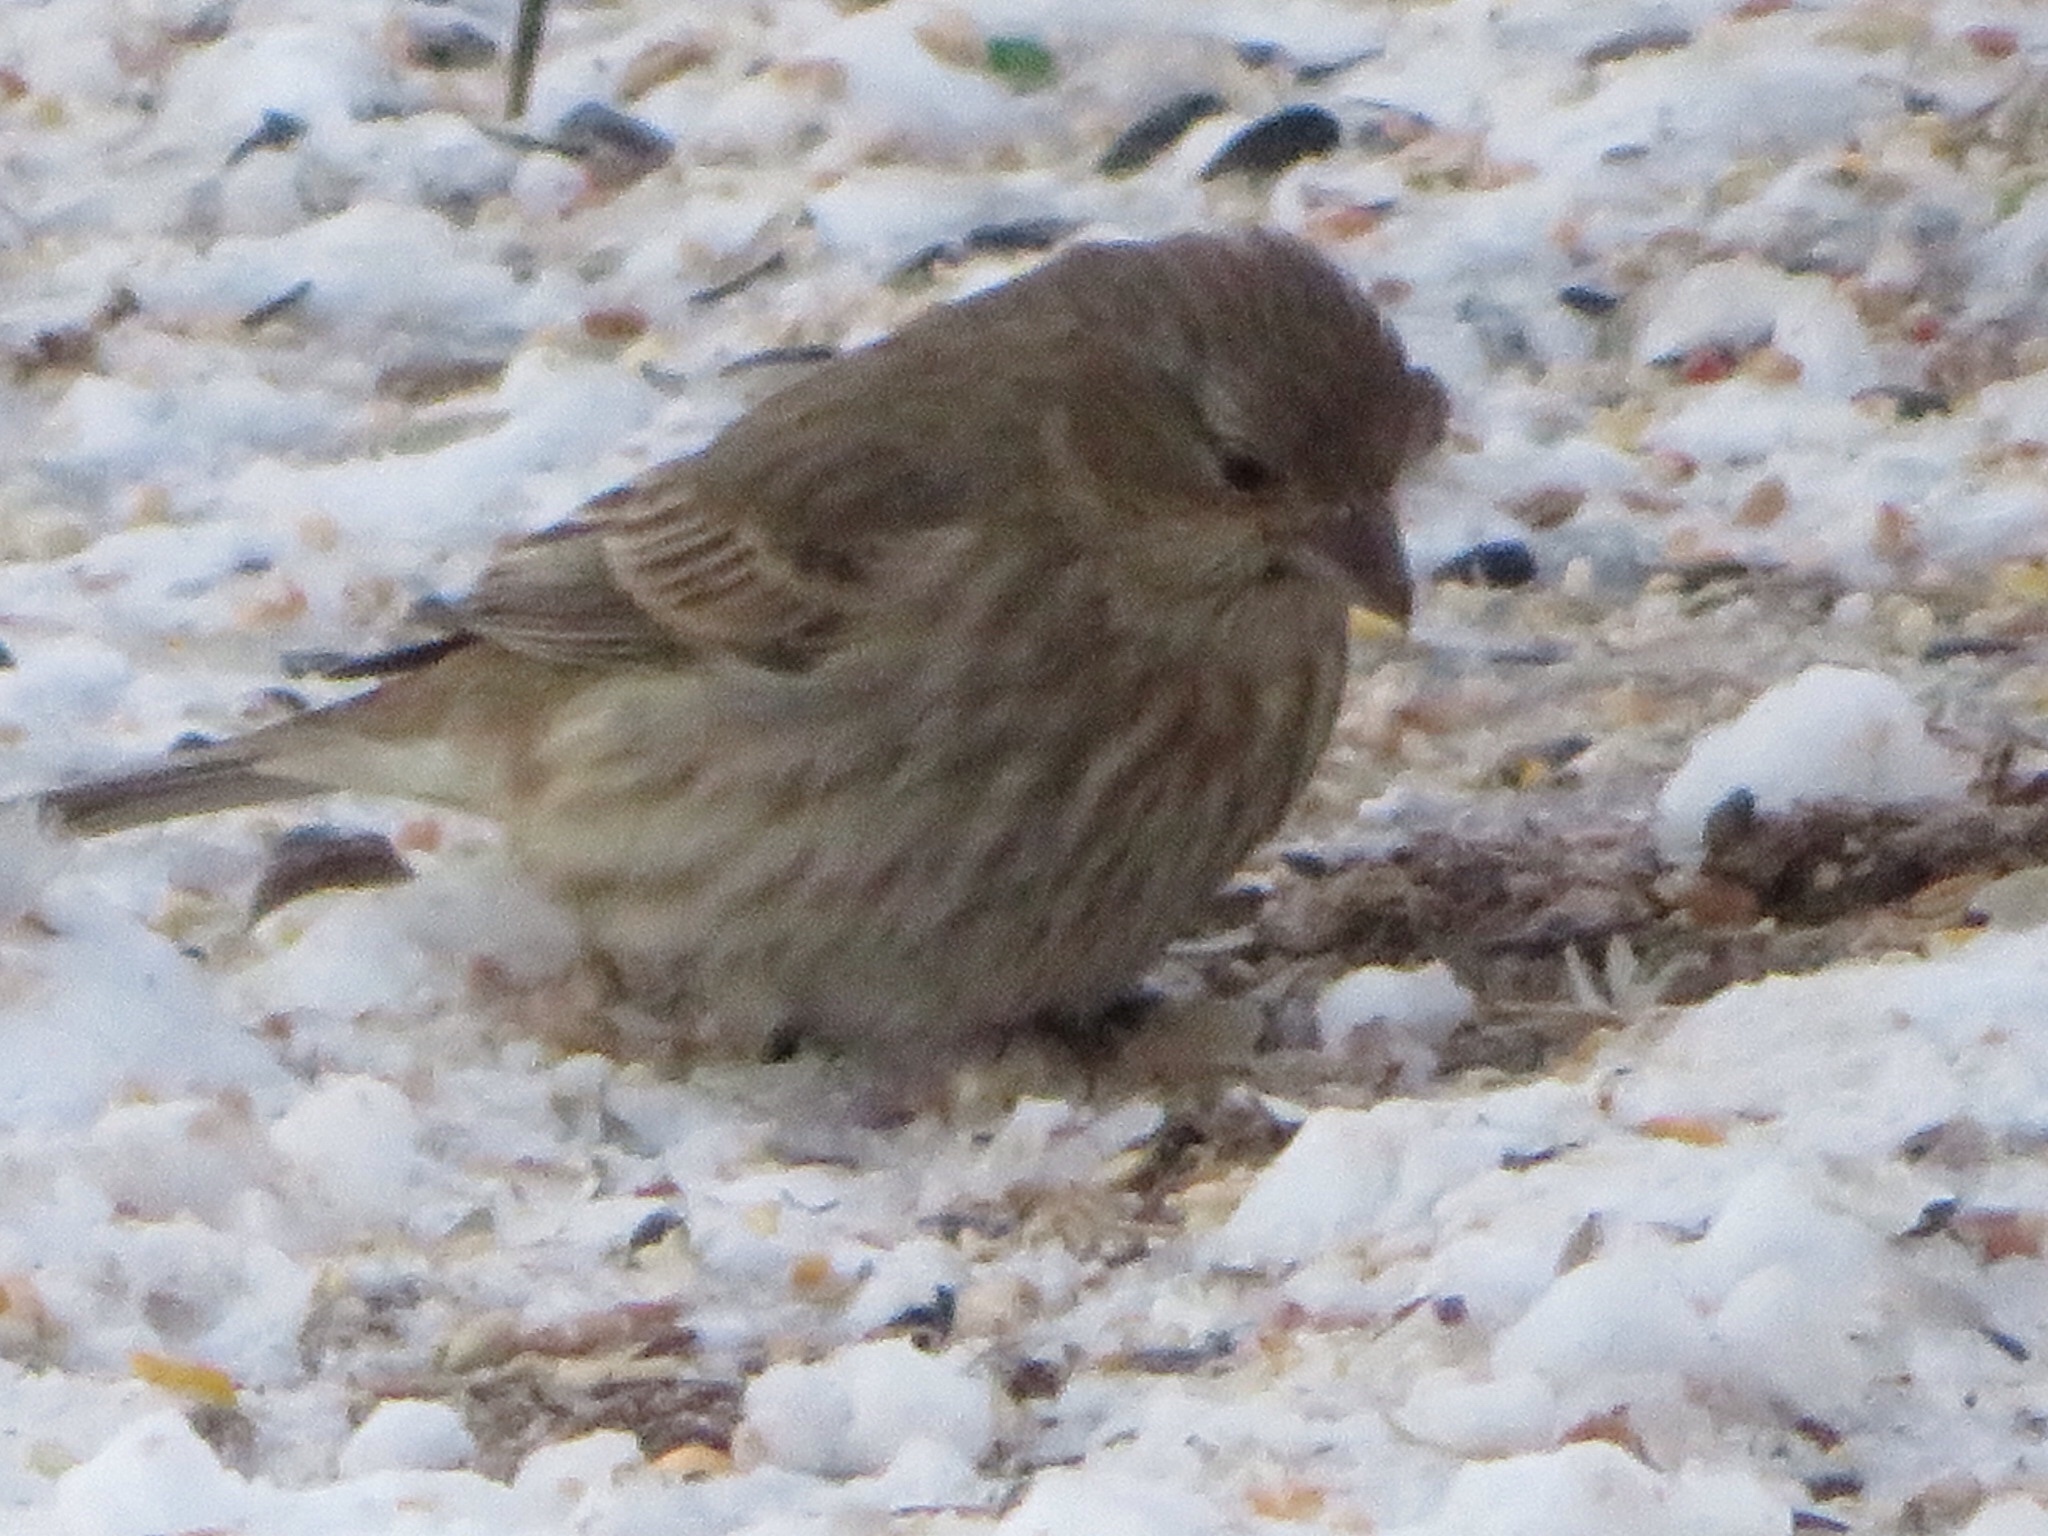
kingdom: Animalia
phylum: Chordata
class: Aves
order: Passeriformes
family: Fringillidae
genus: Haemorhous
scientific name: Haemorhous mexicanus
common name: House finch
